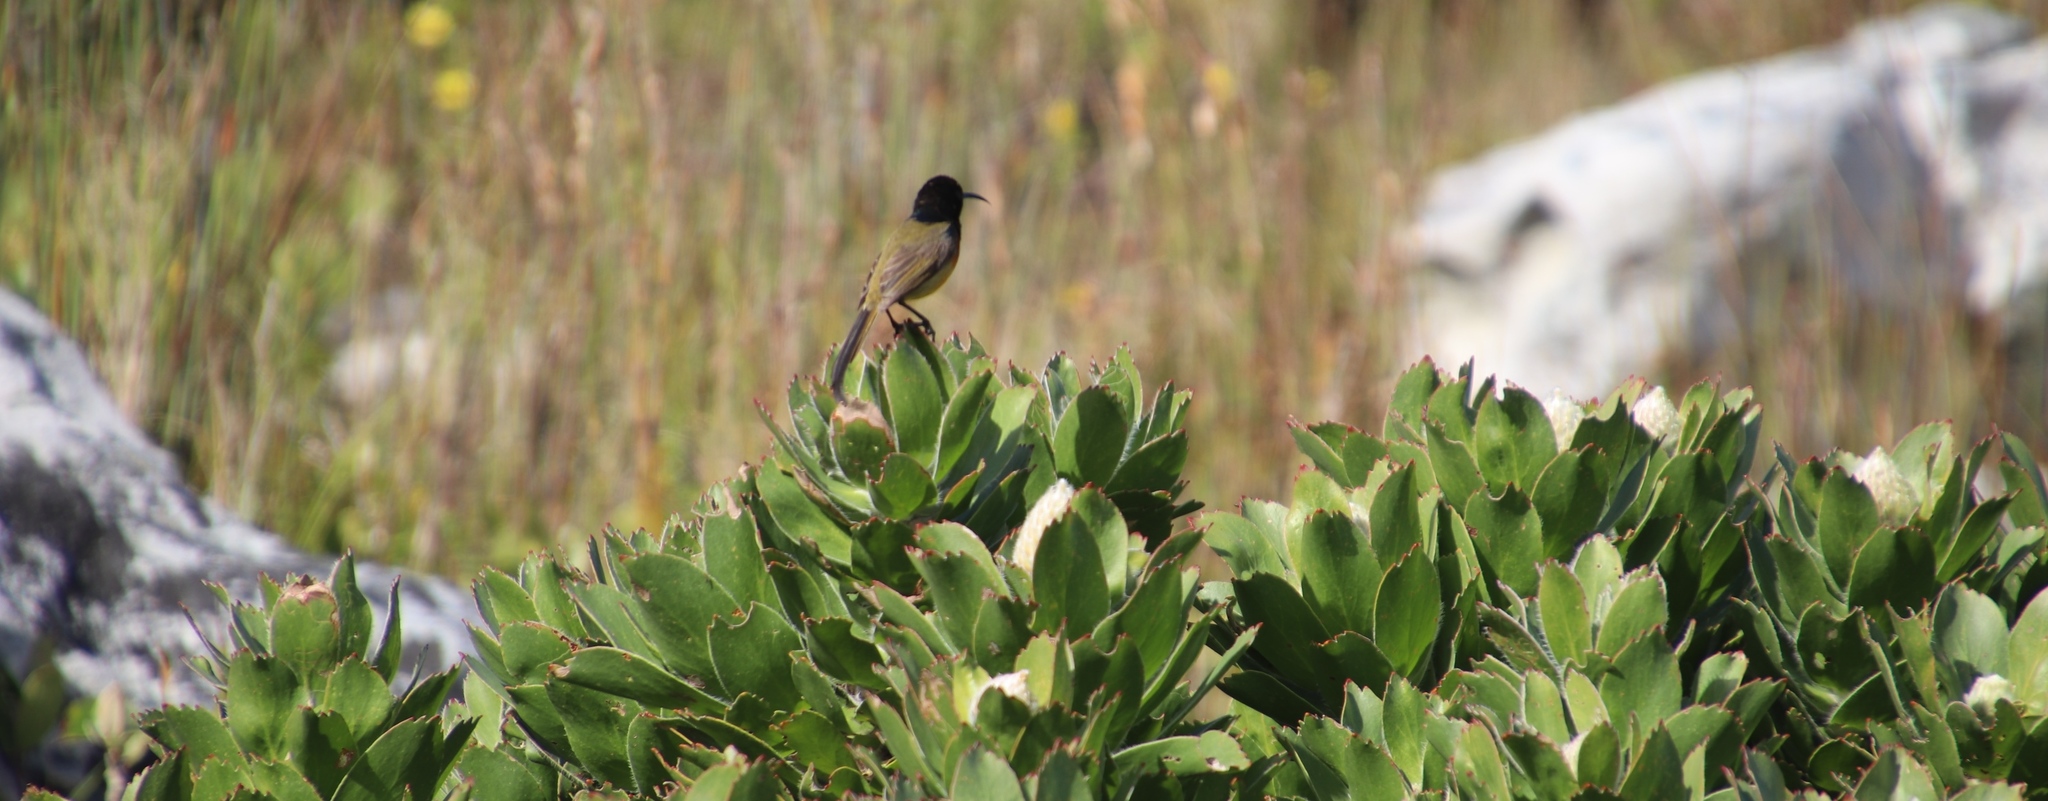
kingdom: Animalia
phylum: Chordata
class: Aves
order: Passeriformes
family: Nectariniidae
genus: Anthobaphes
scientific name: Anthobaphes violacea
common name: Orange-breasted sunbird
